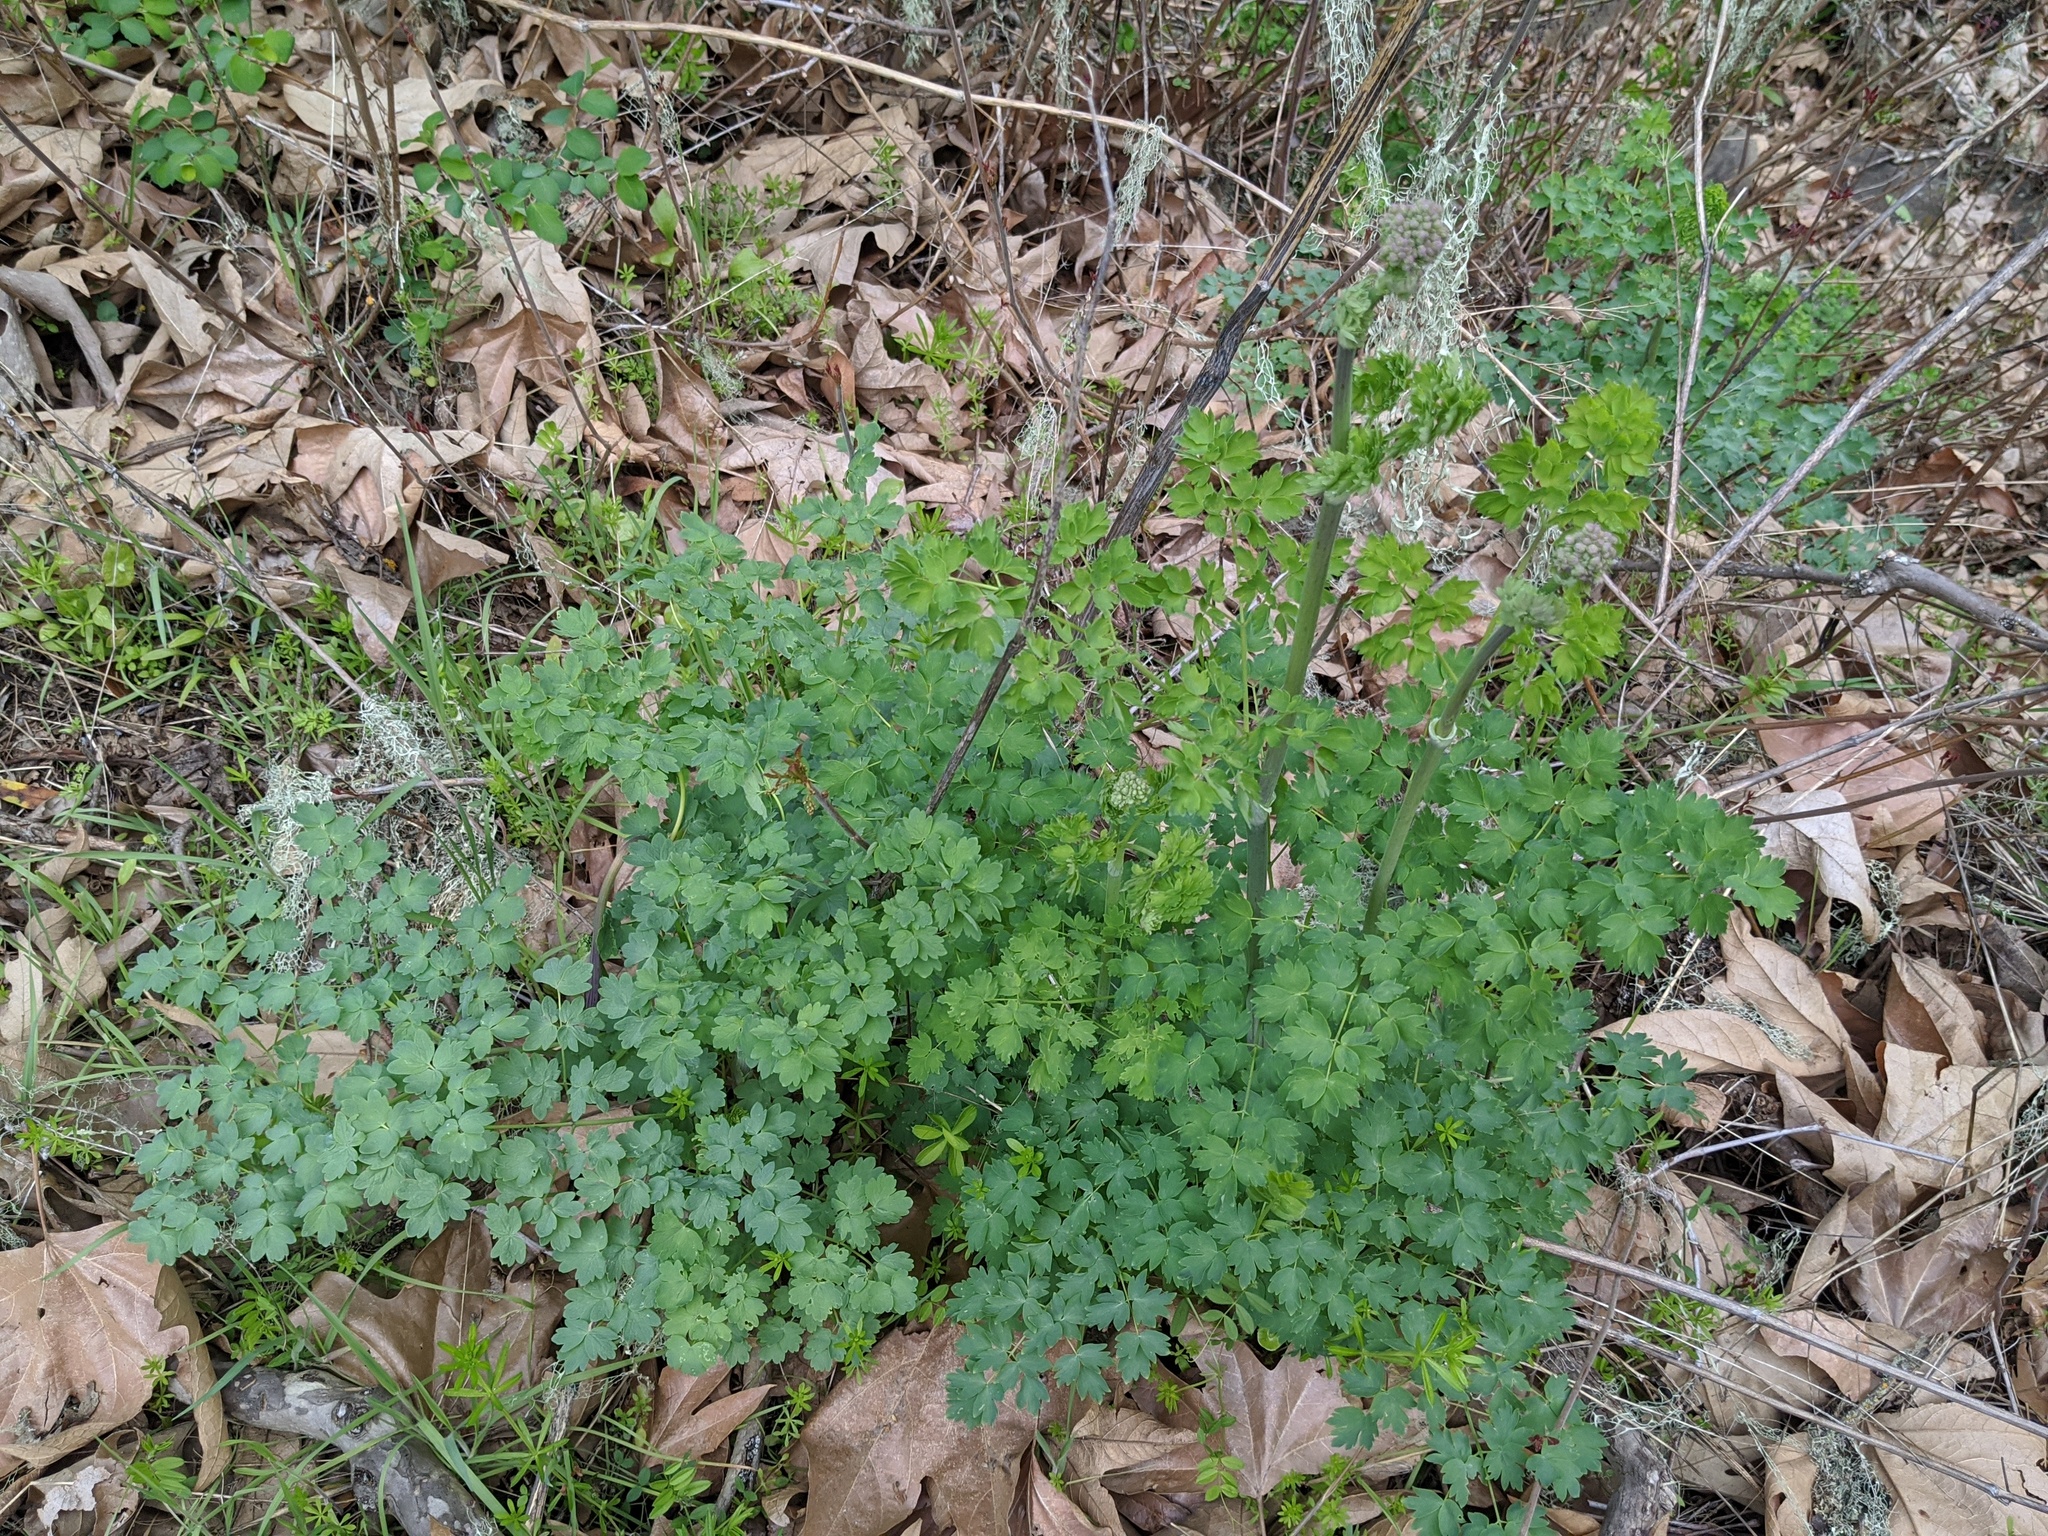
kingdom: Plantae
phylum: Tracheophyta
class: Magnoliopsida
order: Ranunculales
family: Ranunculaceae
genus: Thalictrum
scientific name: Thalictrum fendleri
